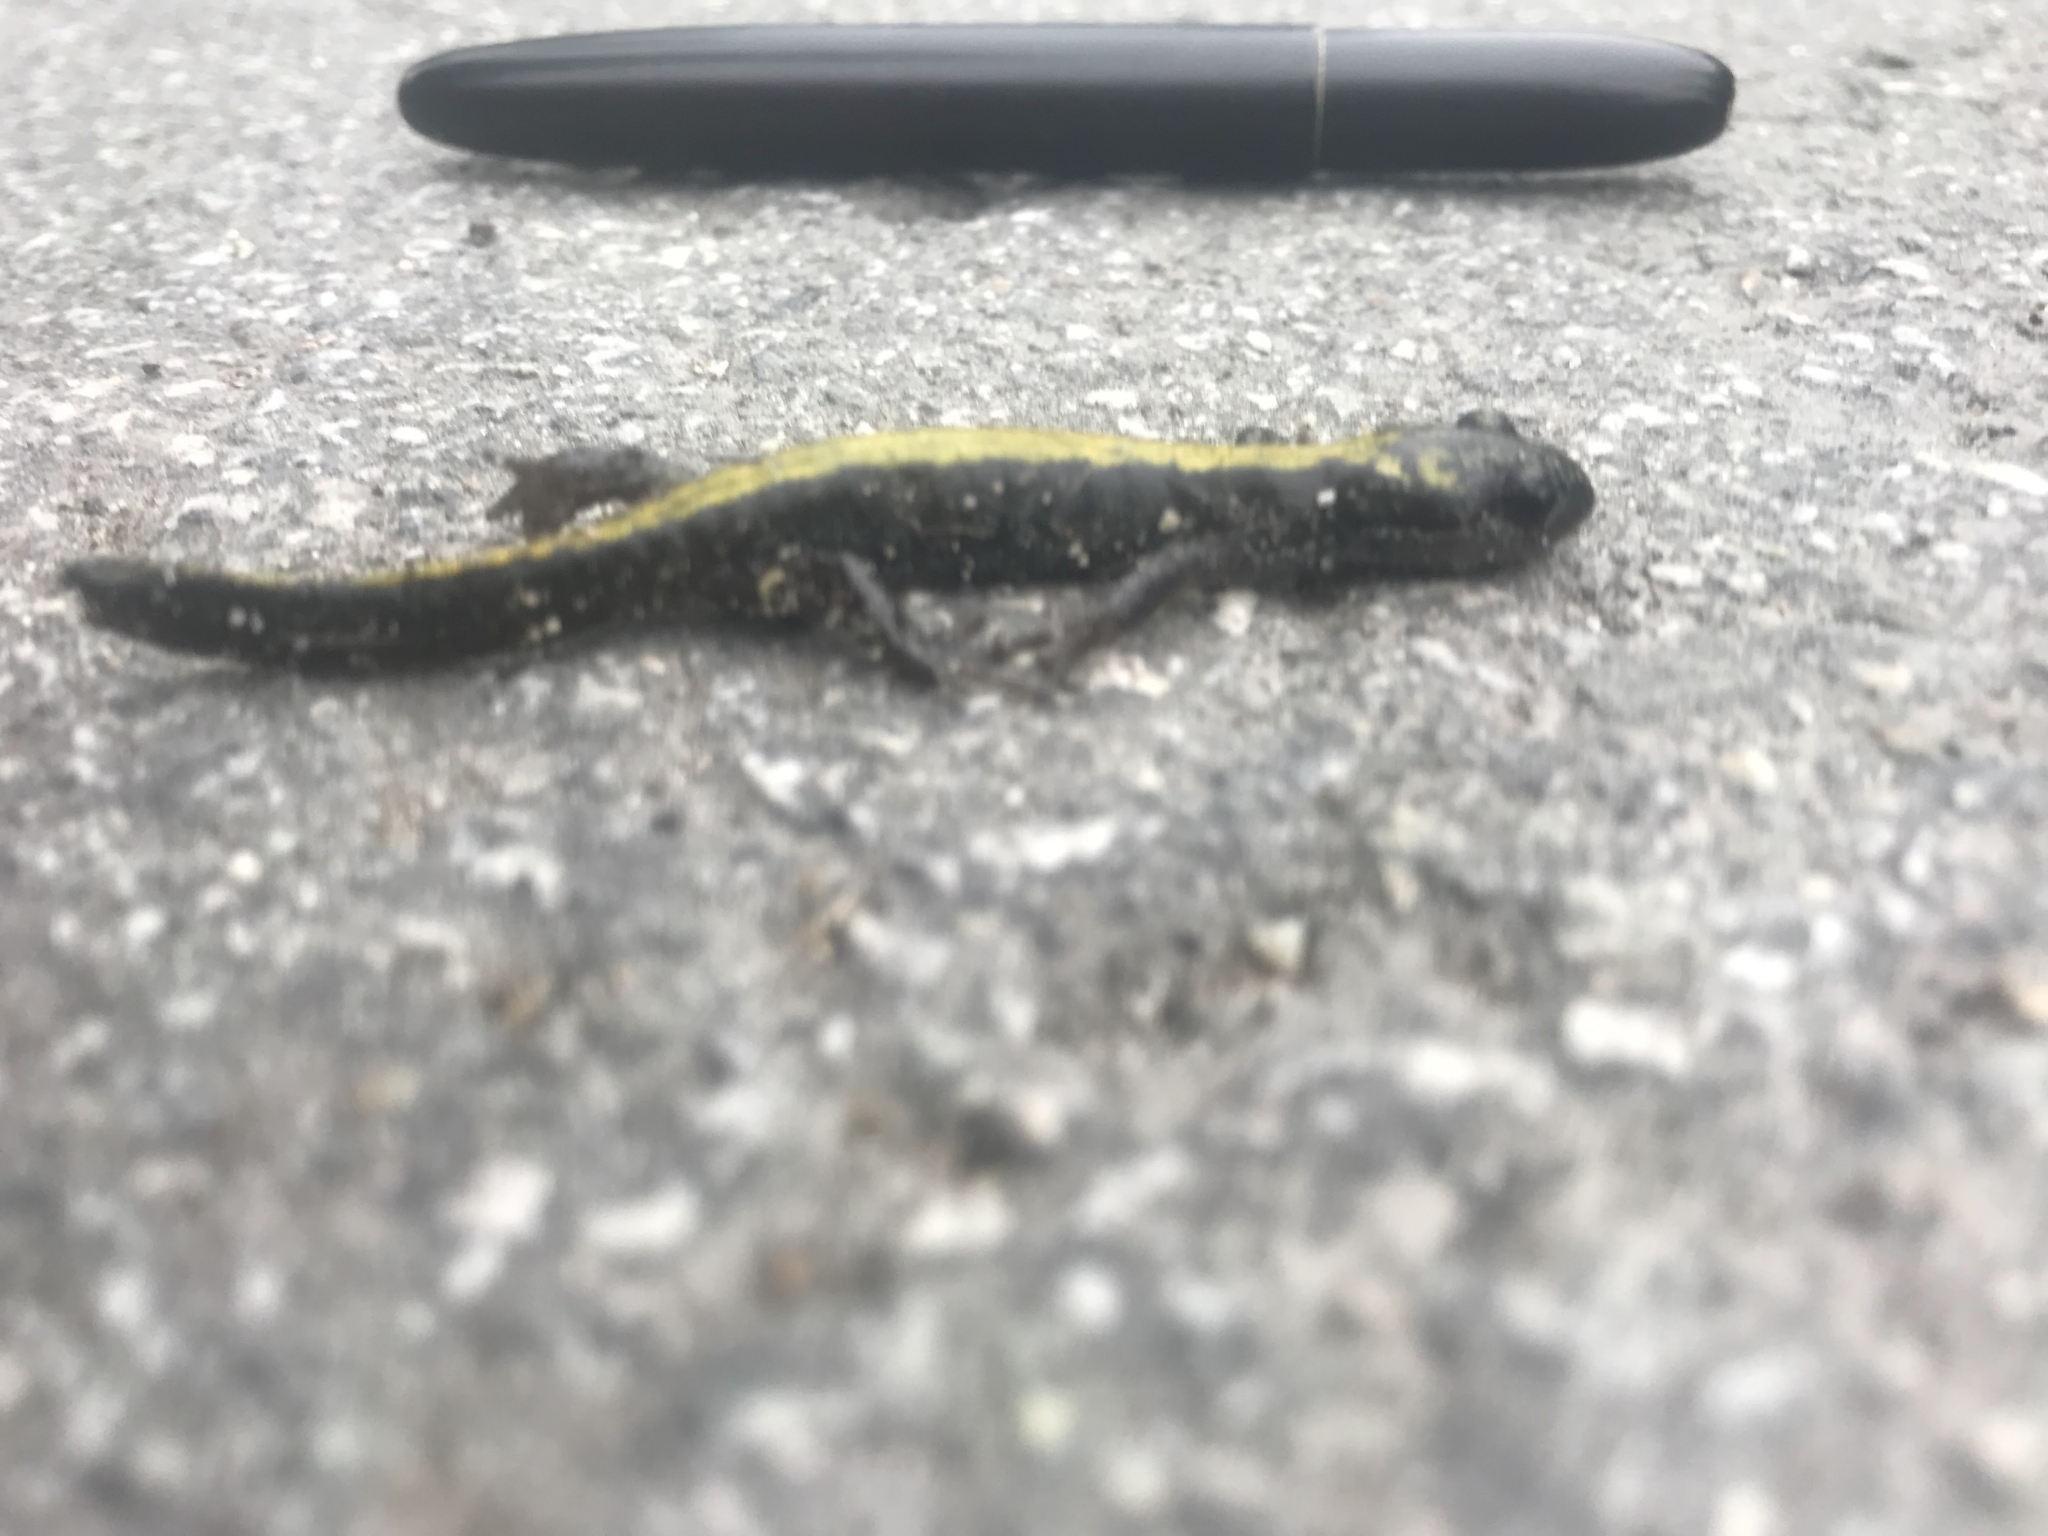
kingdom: Animalia
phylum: Chordata
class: Amphibia
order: Caudata
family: Ambystomatidae
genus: Ambystoma
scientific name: Ambystoma macrodactylum
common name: Long-toed salamander
